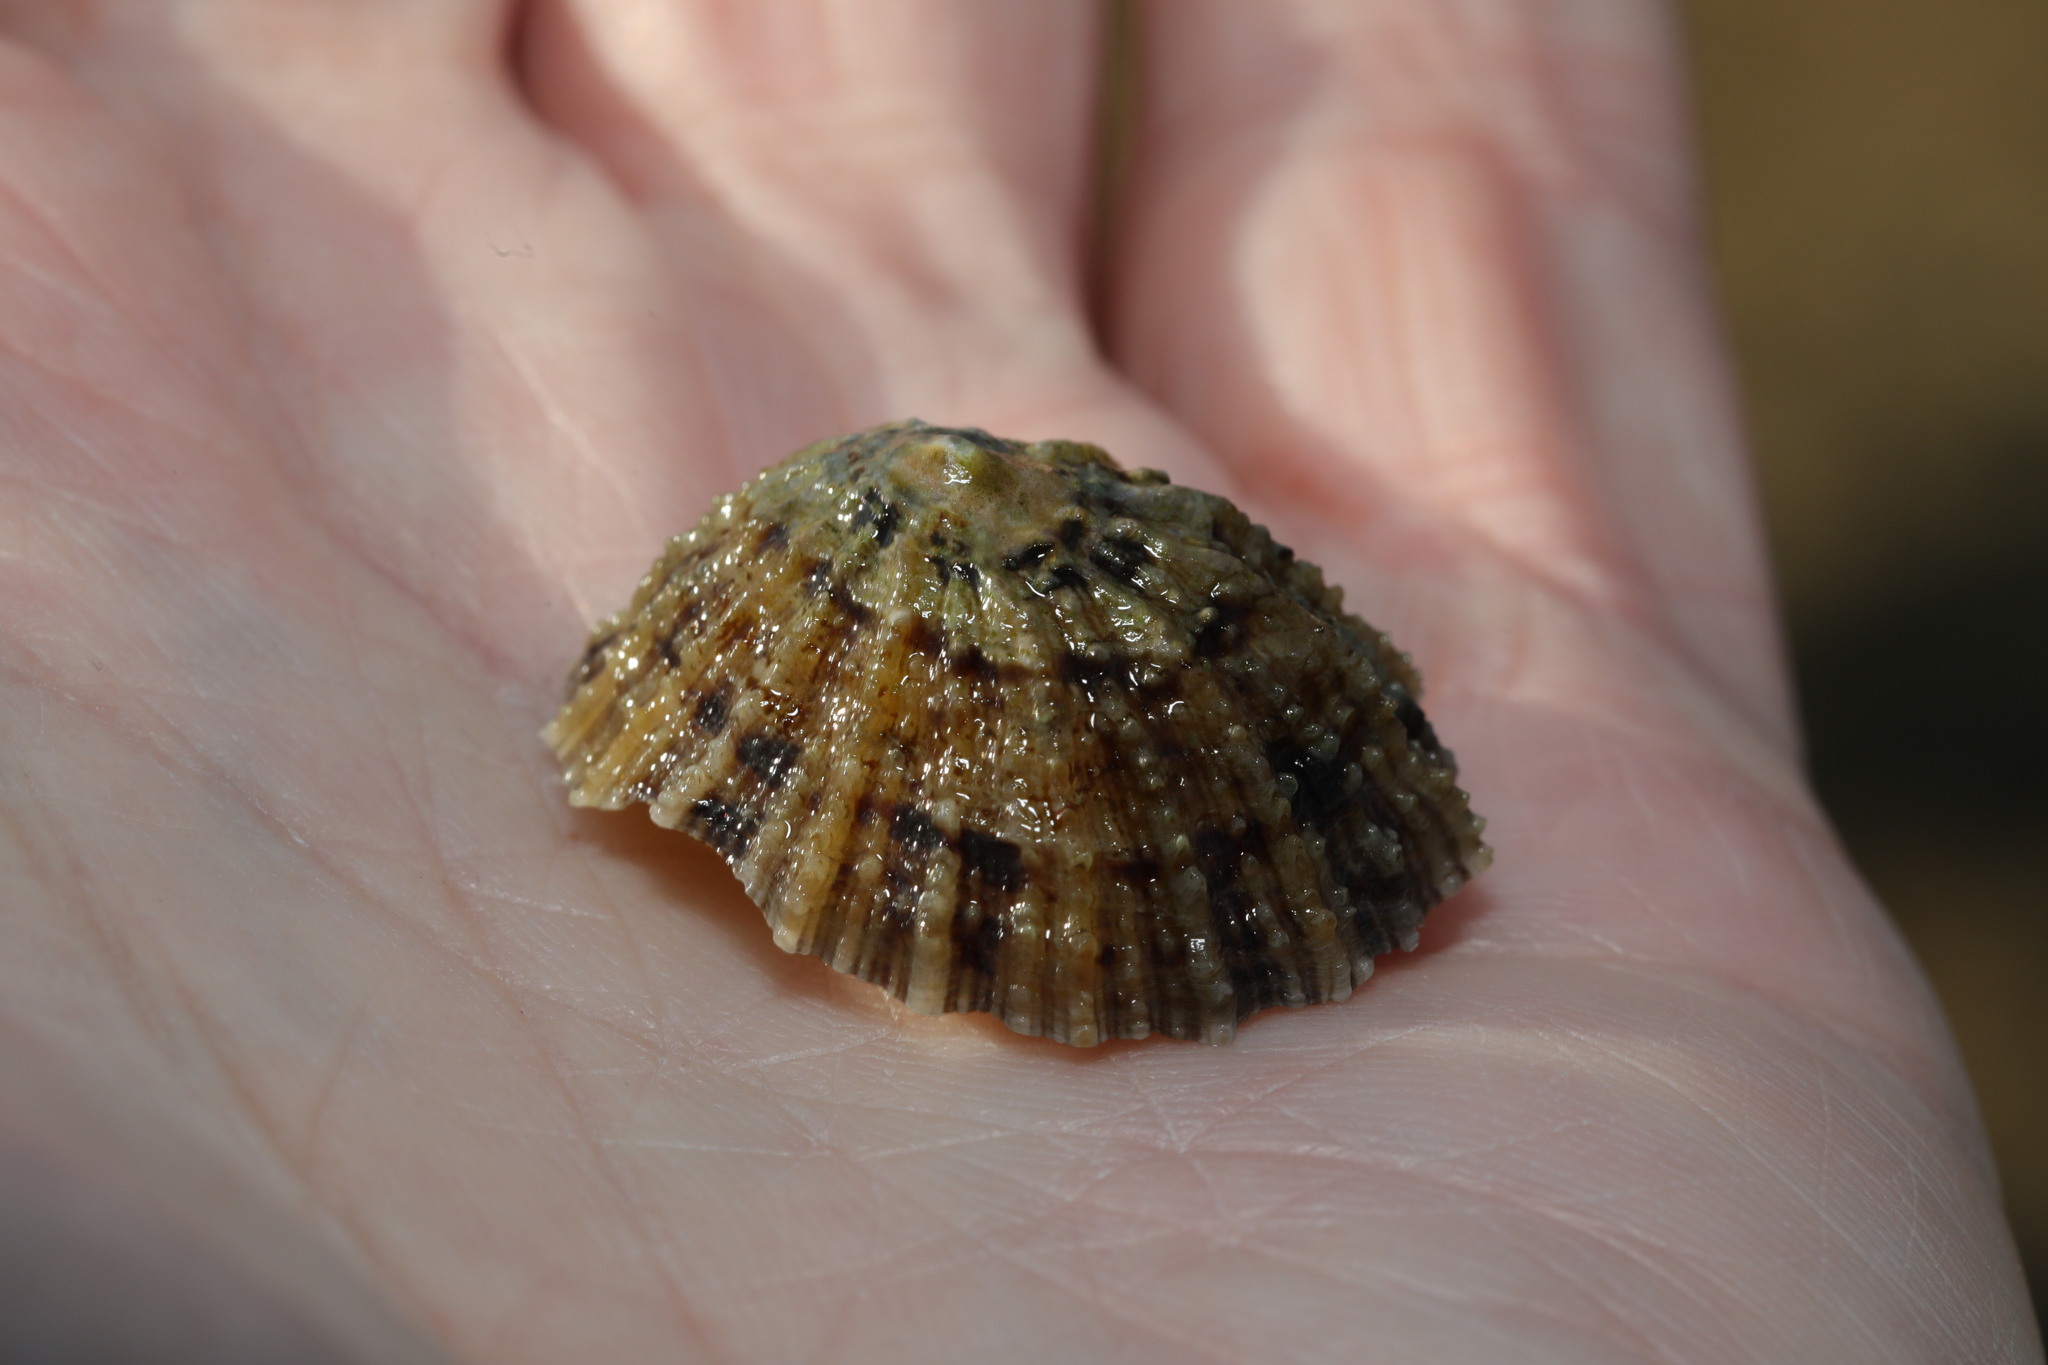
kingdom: Animalia
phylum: Mollusca
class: Gastropoda
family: Patellidae
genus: Patella
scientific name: Patella vulgata
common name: Common limpet
